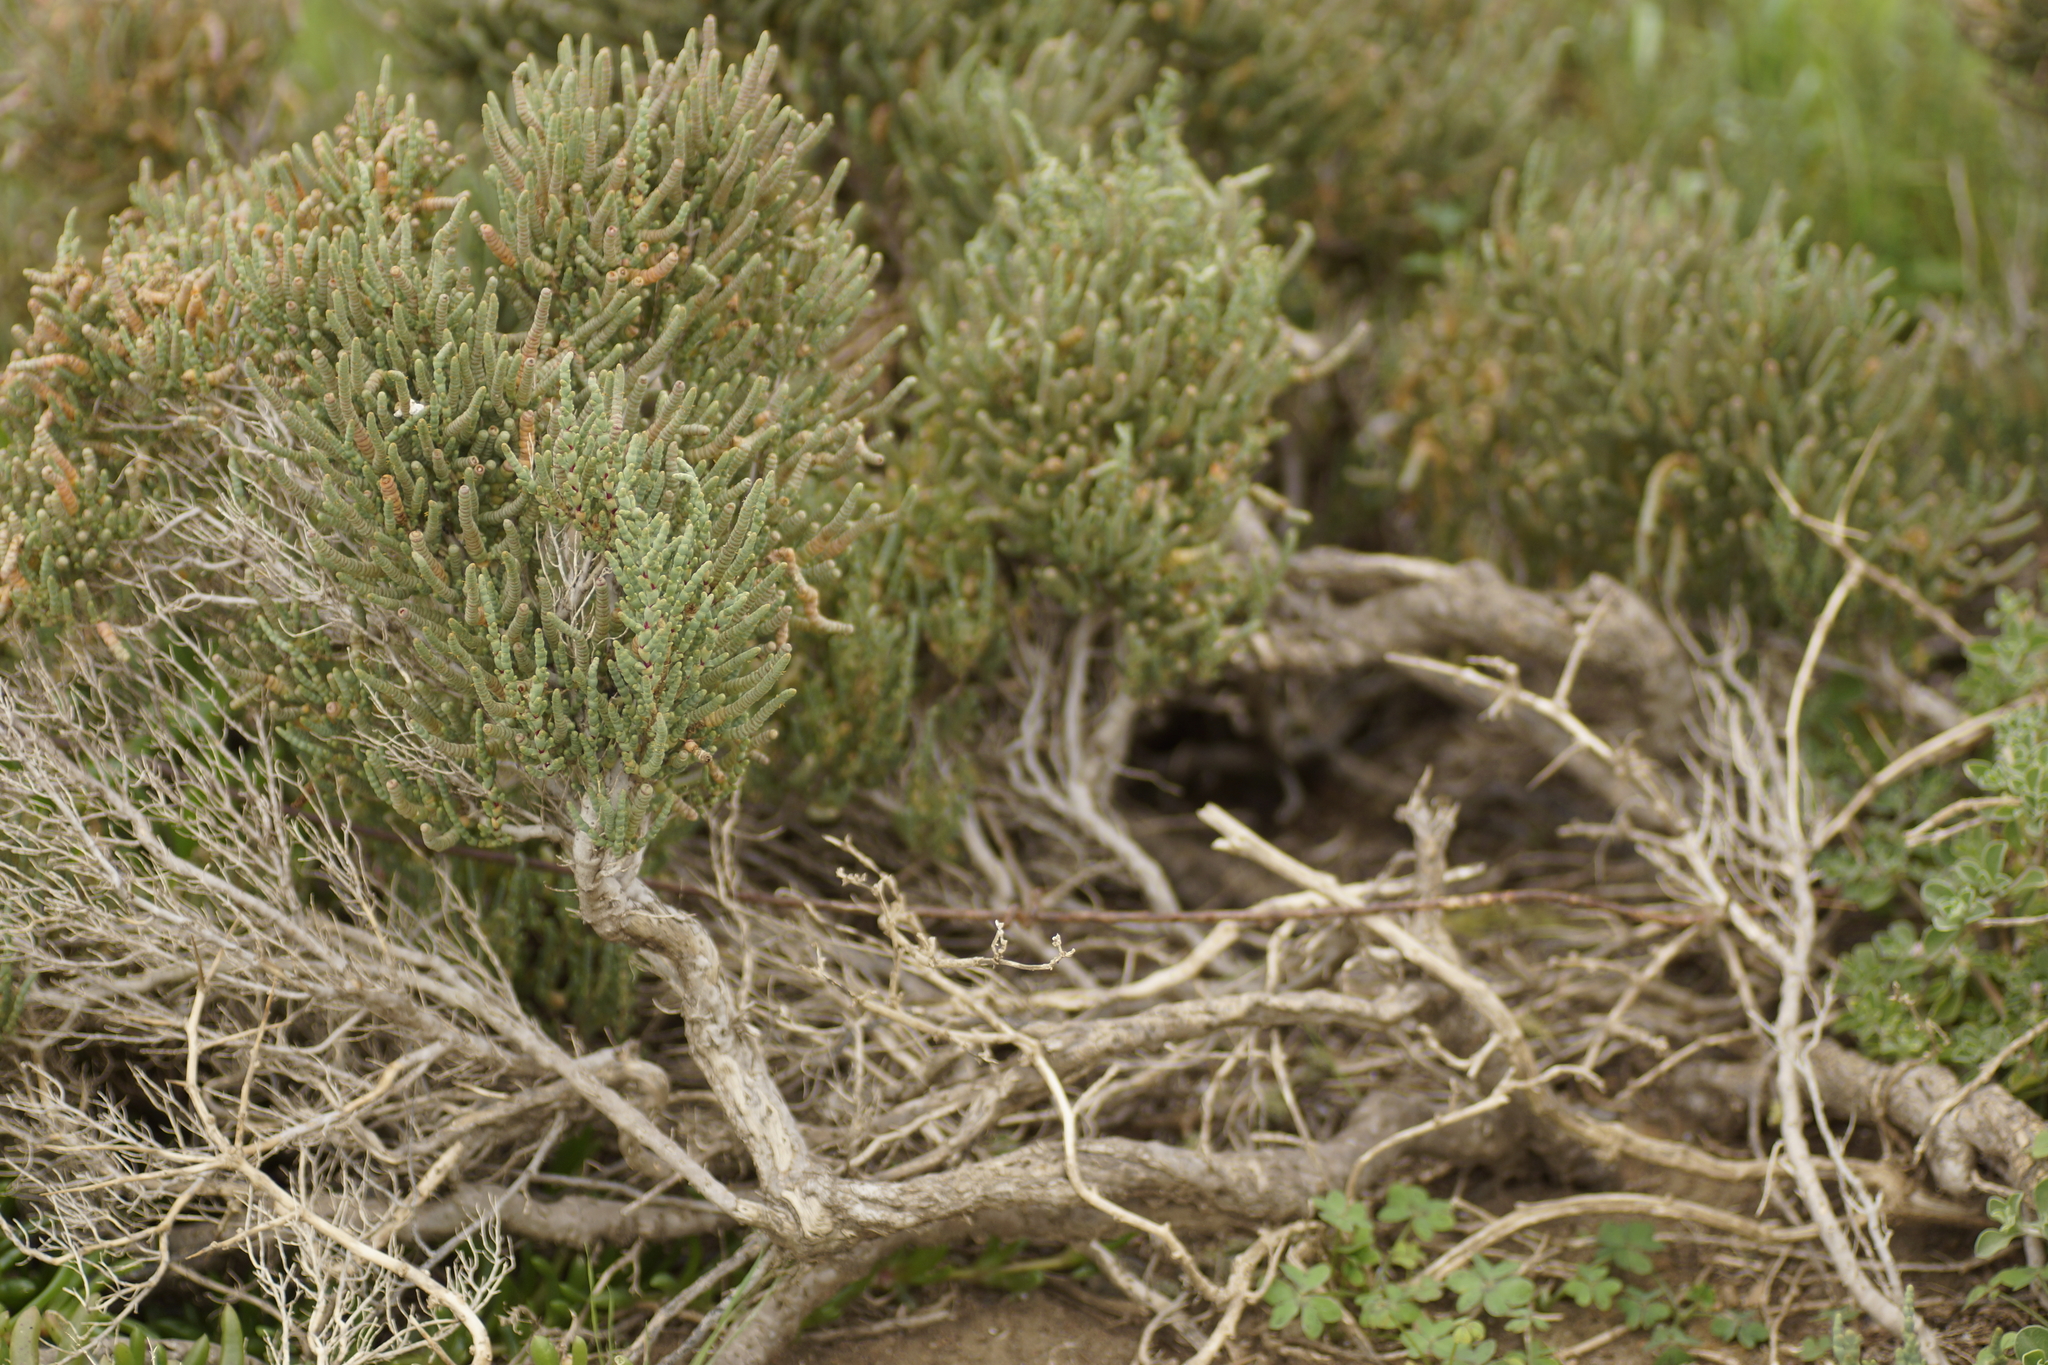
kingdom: Plantae
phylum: Tracheophyta
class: Magnoliopsida
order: Caryophyllales
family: Amaranthaceae
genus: Tecticornia
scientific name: Tecticornia arbuscula
